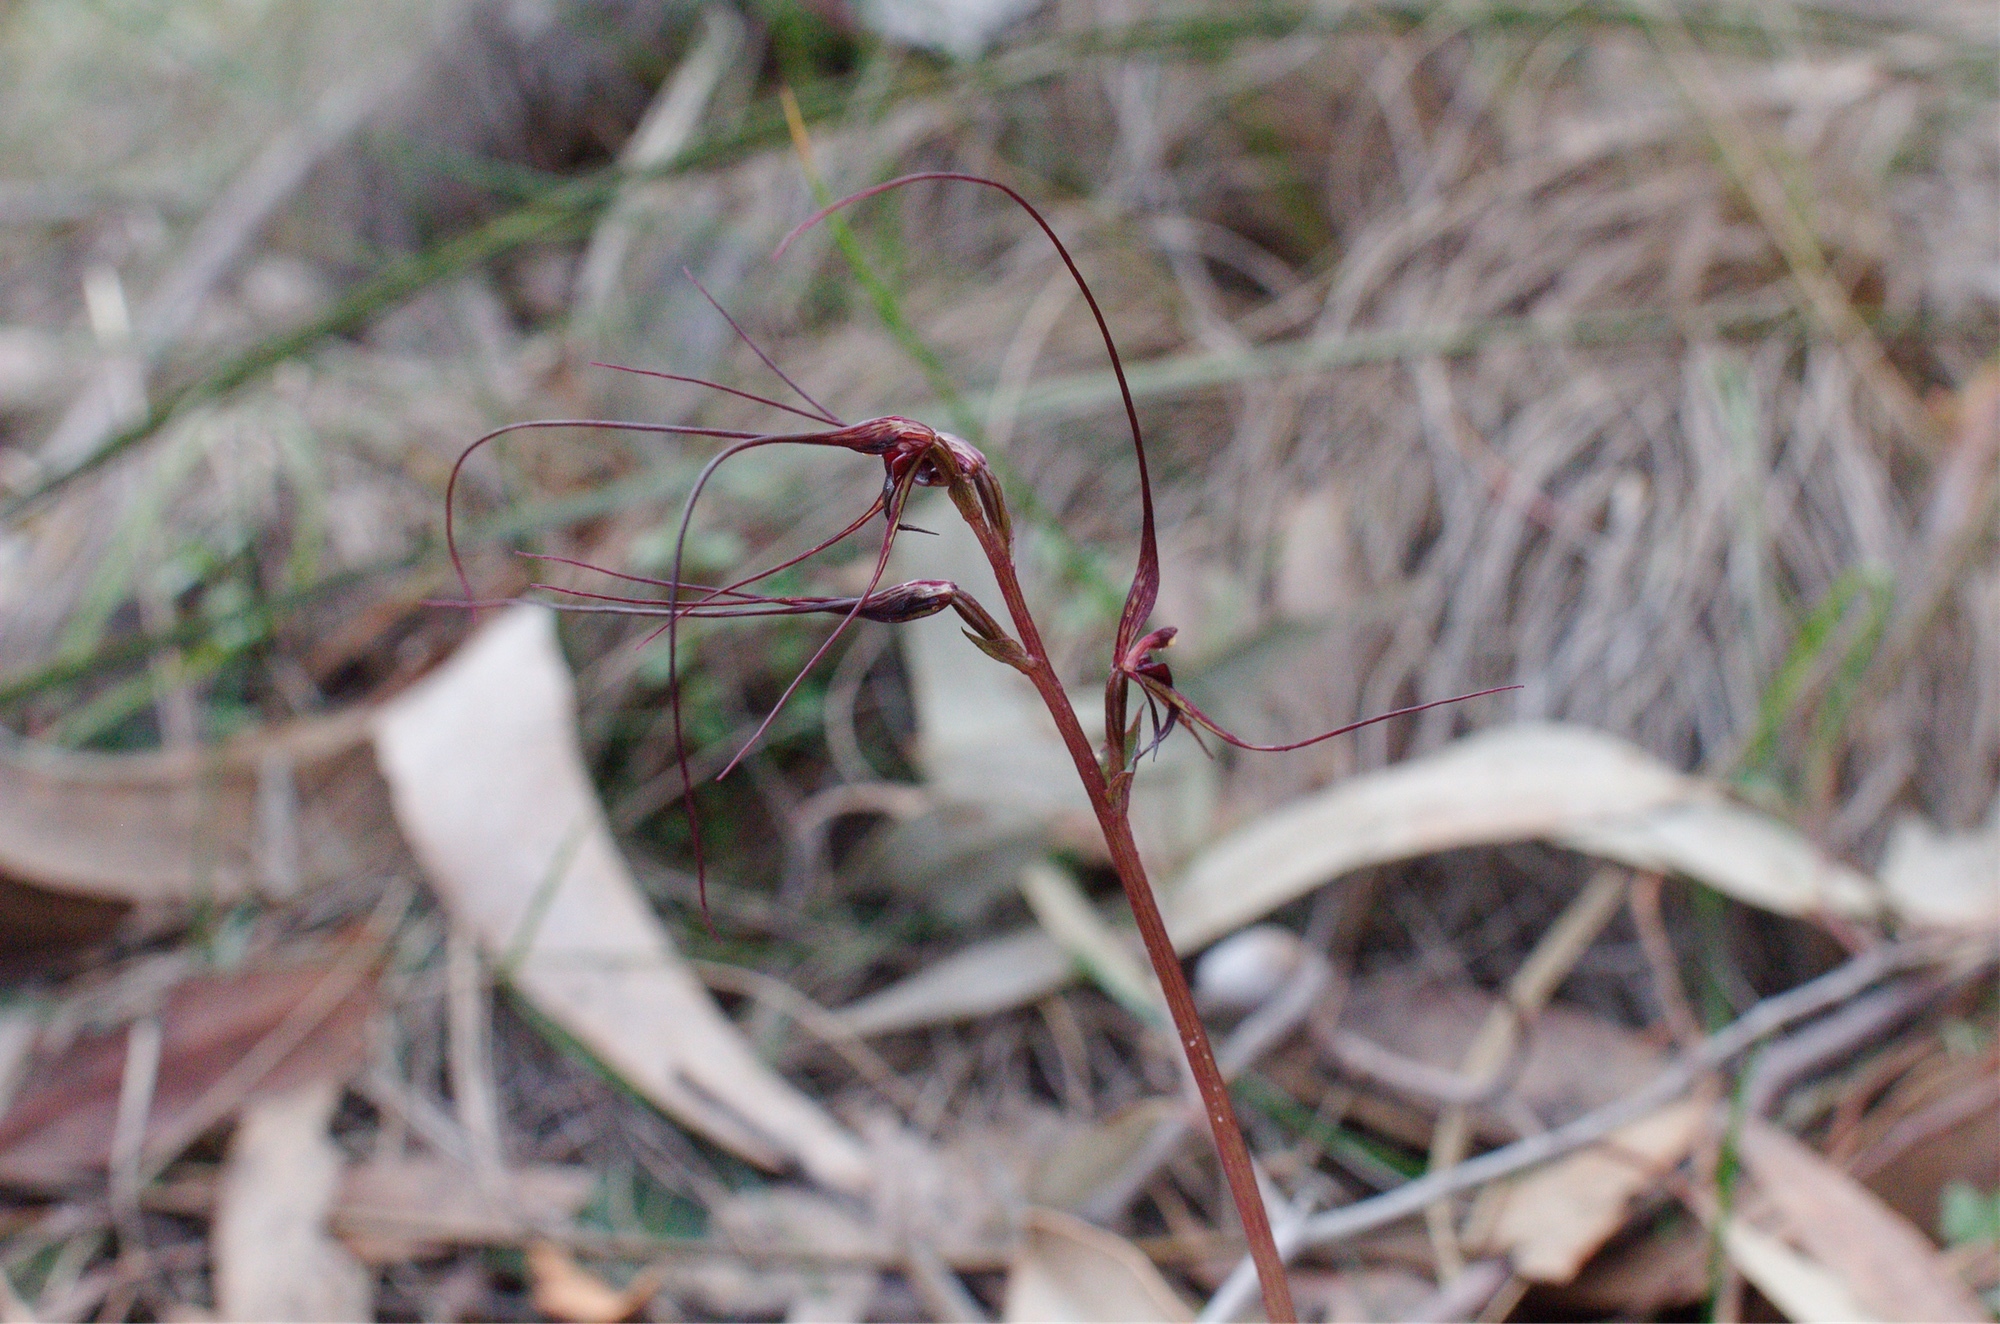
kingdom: Plantae
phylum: Tracheophyta
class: Liliopsida
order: Asparagales
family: Orchidaceae
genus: Acianthus
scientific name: Acianthus caudatus
